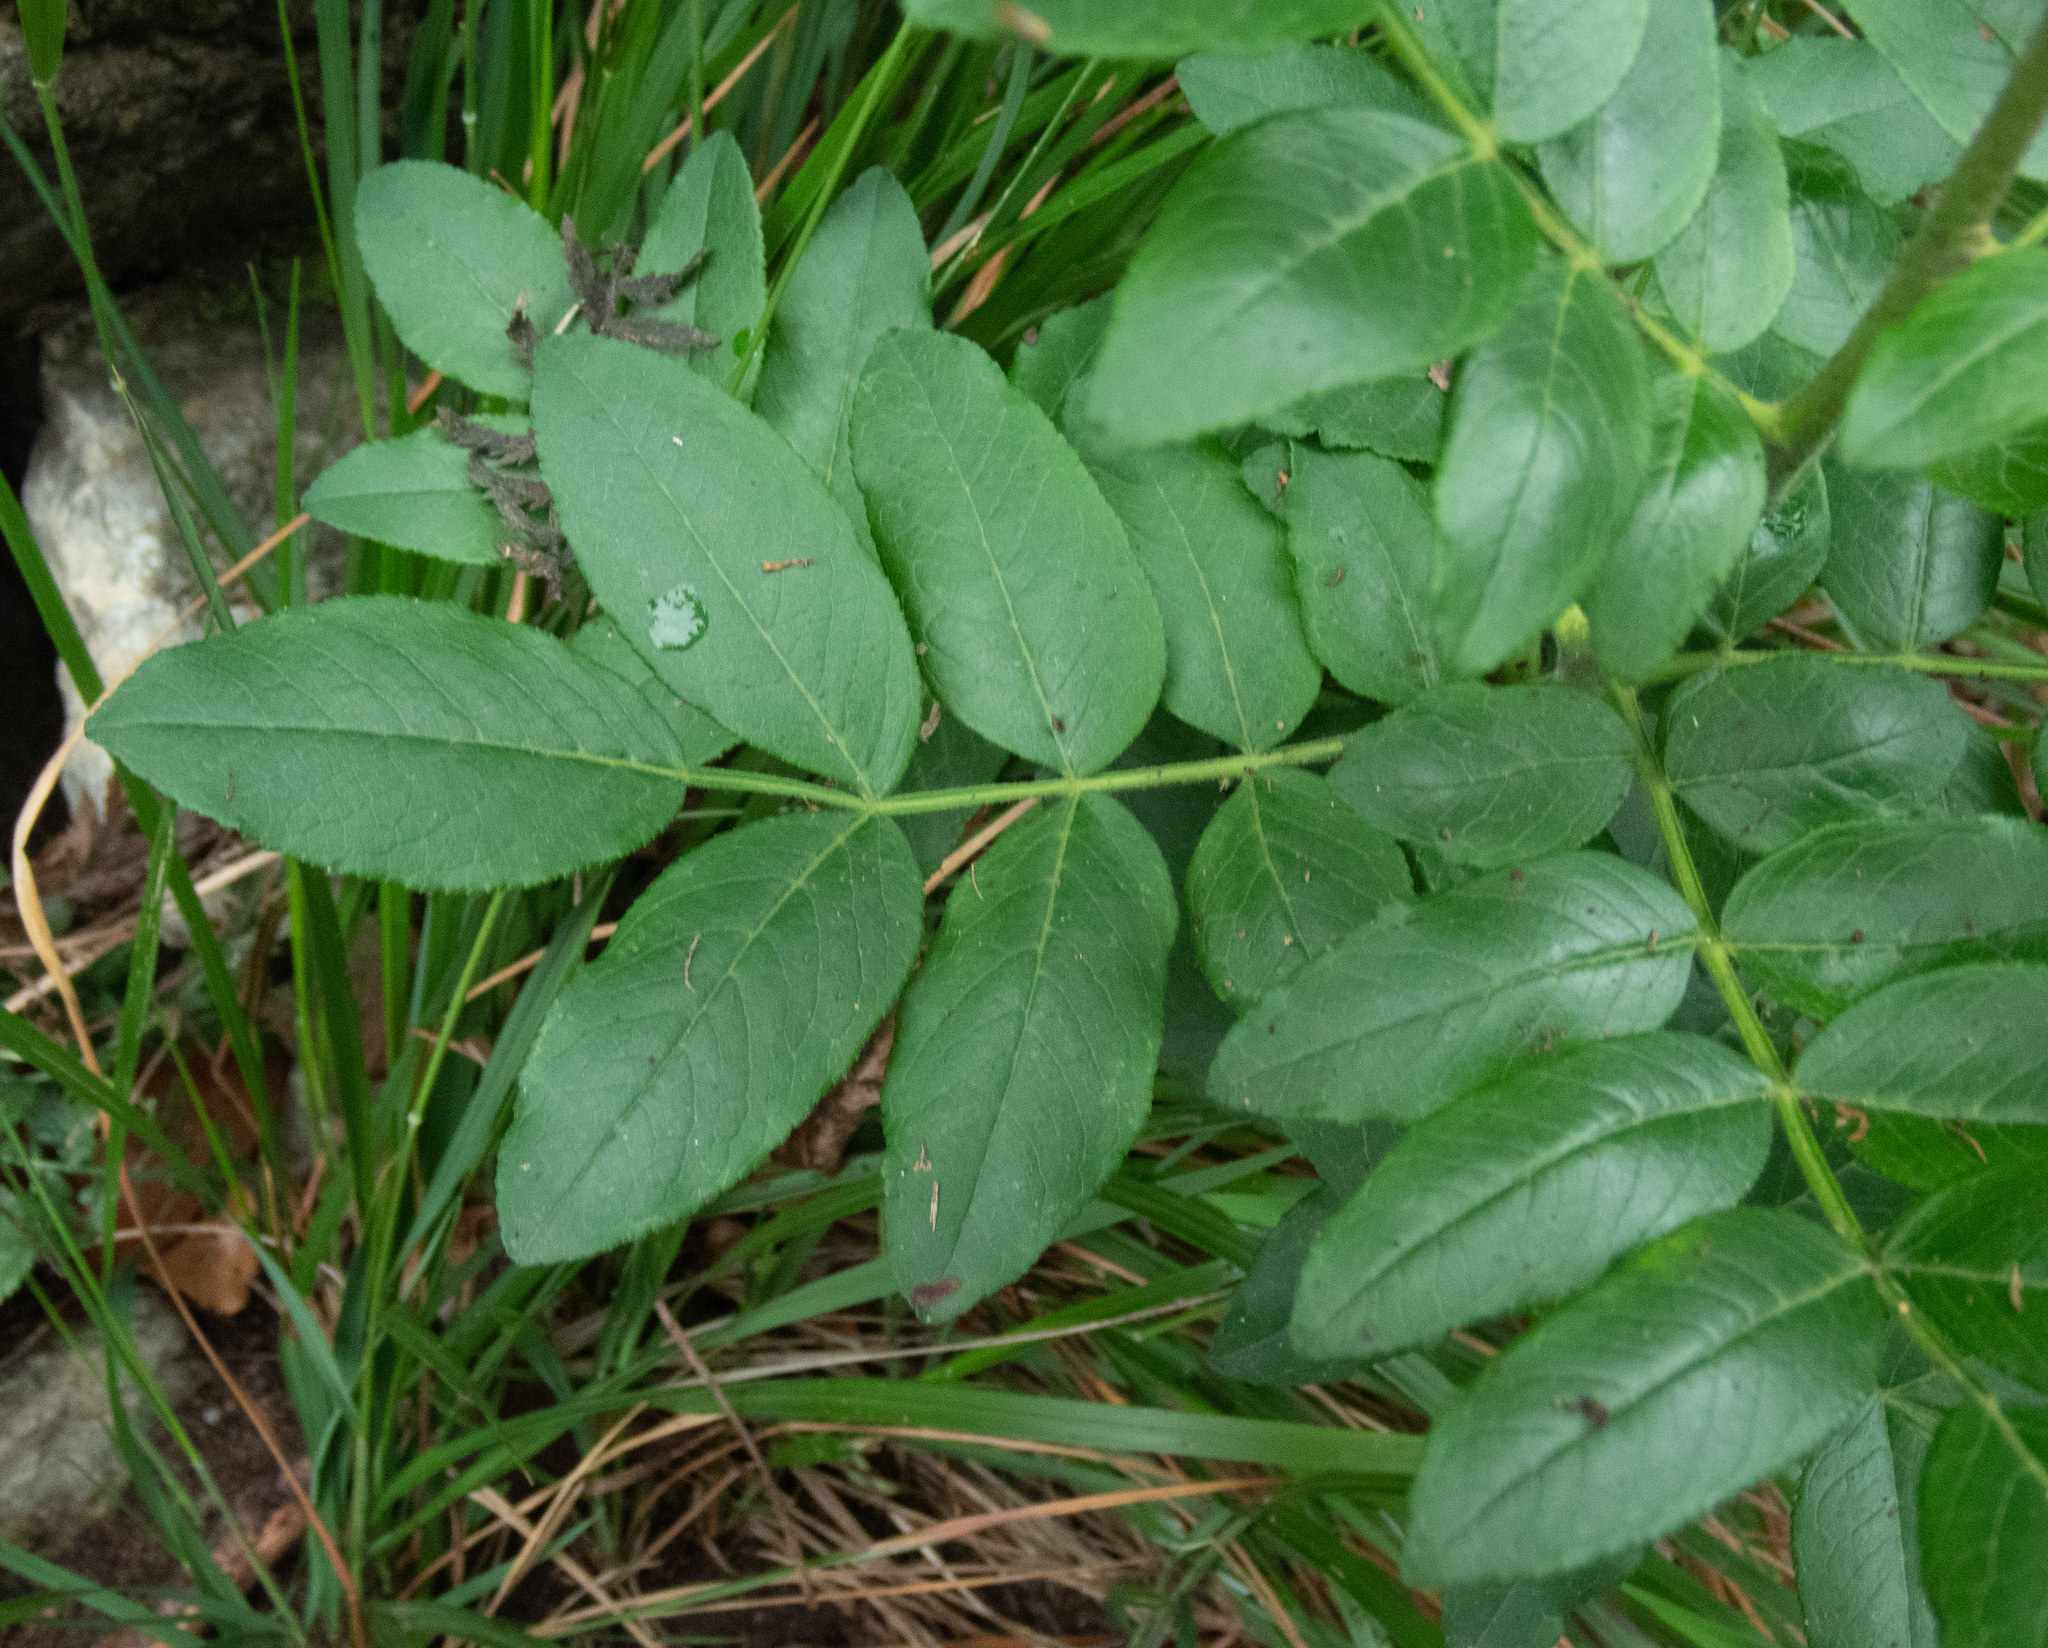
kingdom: Plantae
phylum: Tracheophyta
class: Magnoliopsida
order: Sapindales
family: Rutaceae
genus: Dictamnus
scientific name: Dictamnus albus
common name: Gasplant
